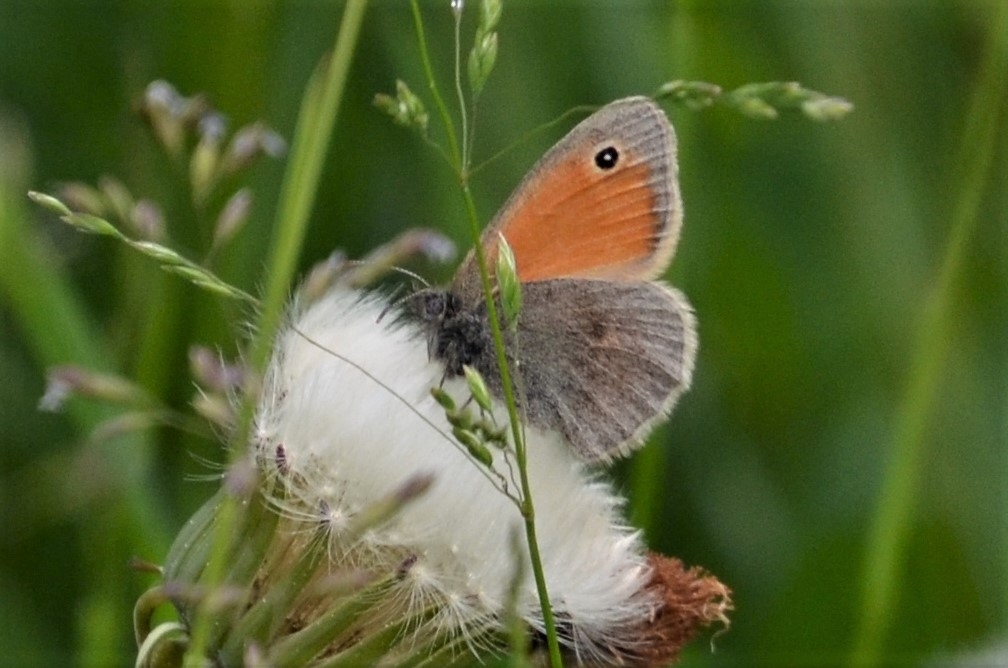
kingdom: Animalia
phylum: Arthropoda
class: Insecta
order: Lepidoptera
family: Nymphalidae
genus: Coenonympha
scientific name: Coenonympha pamphilus
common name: Small heath
